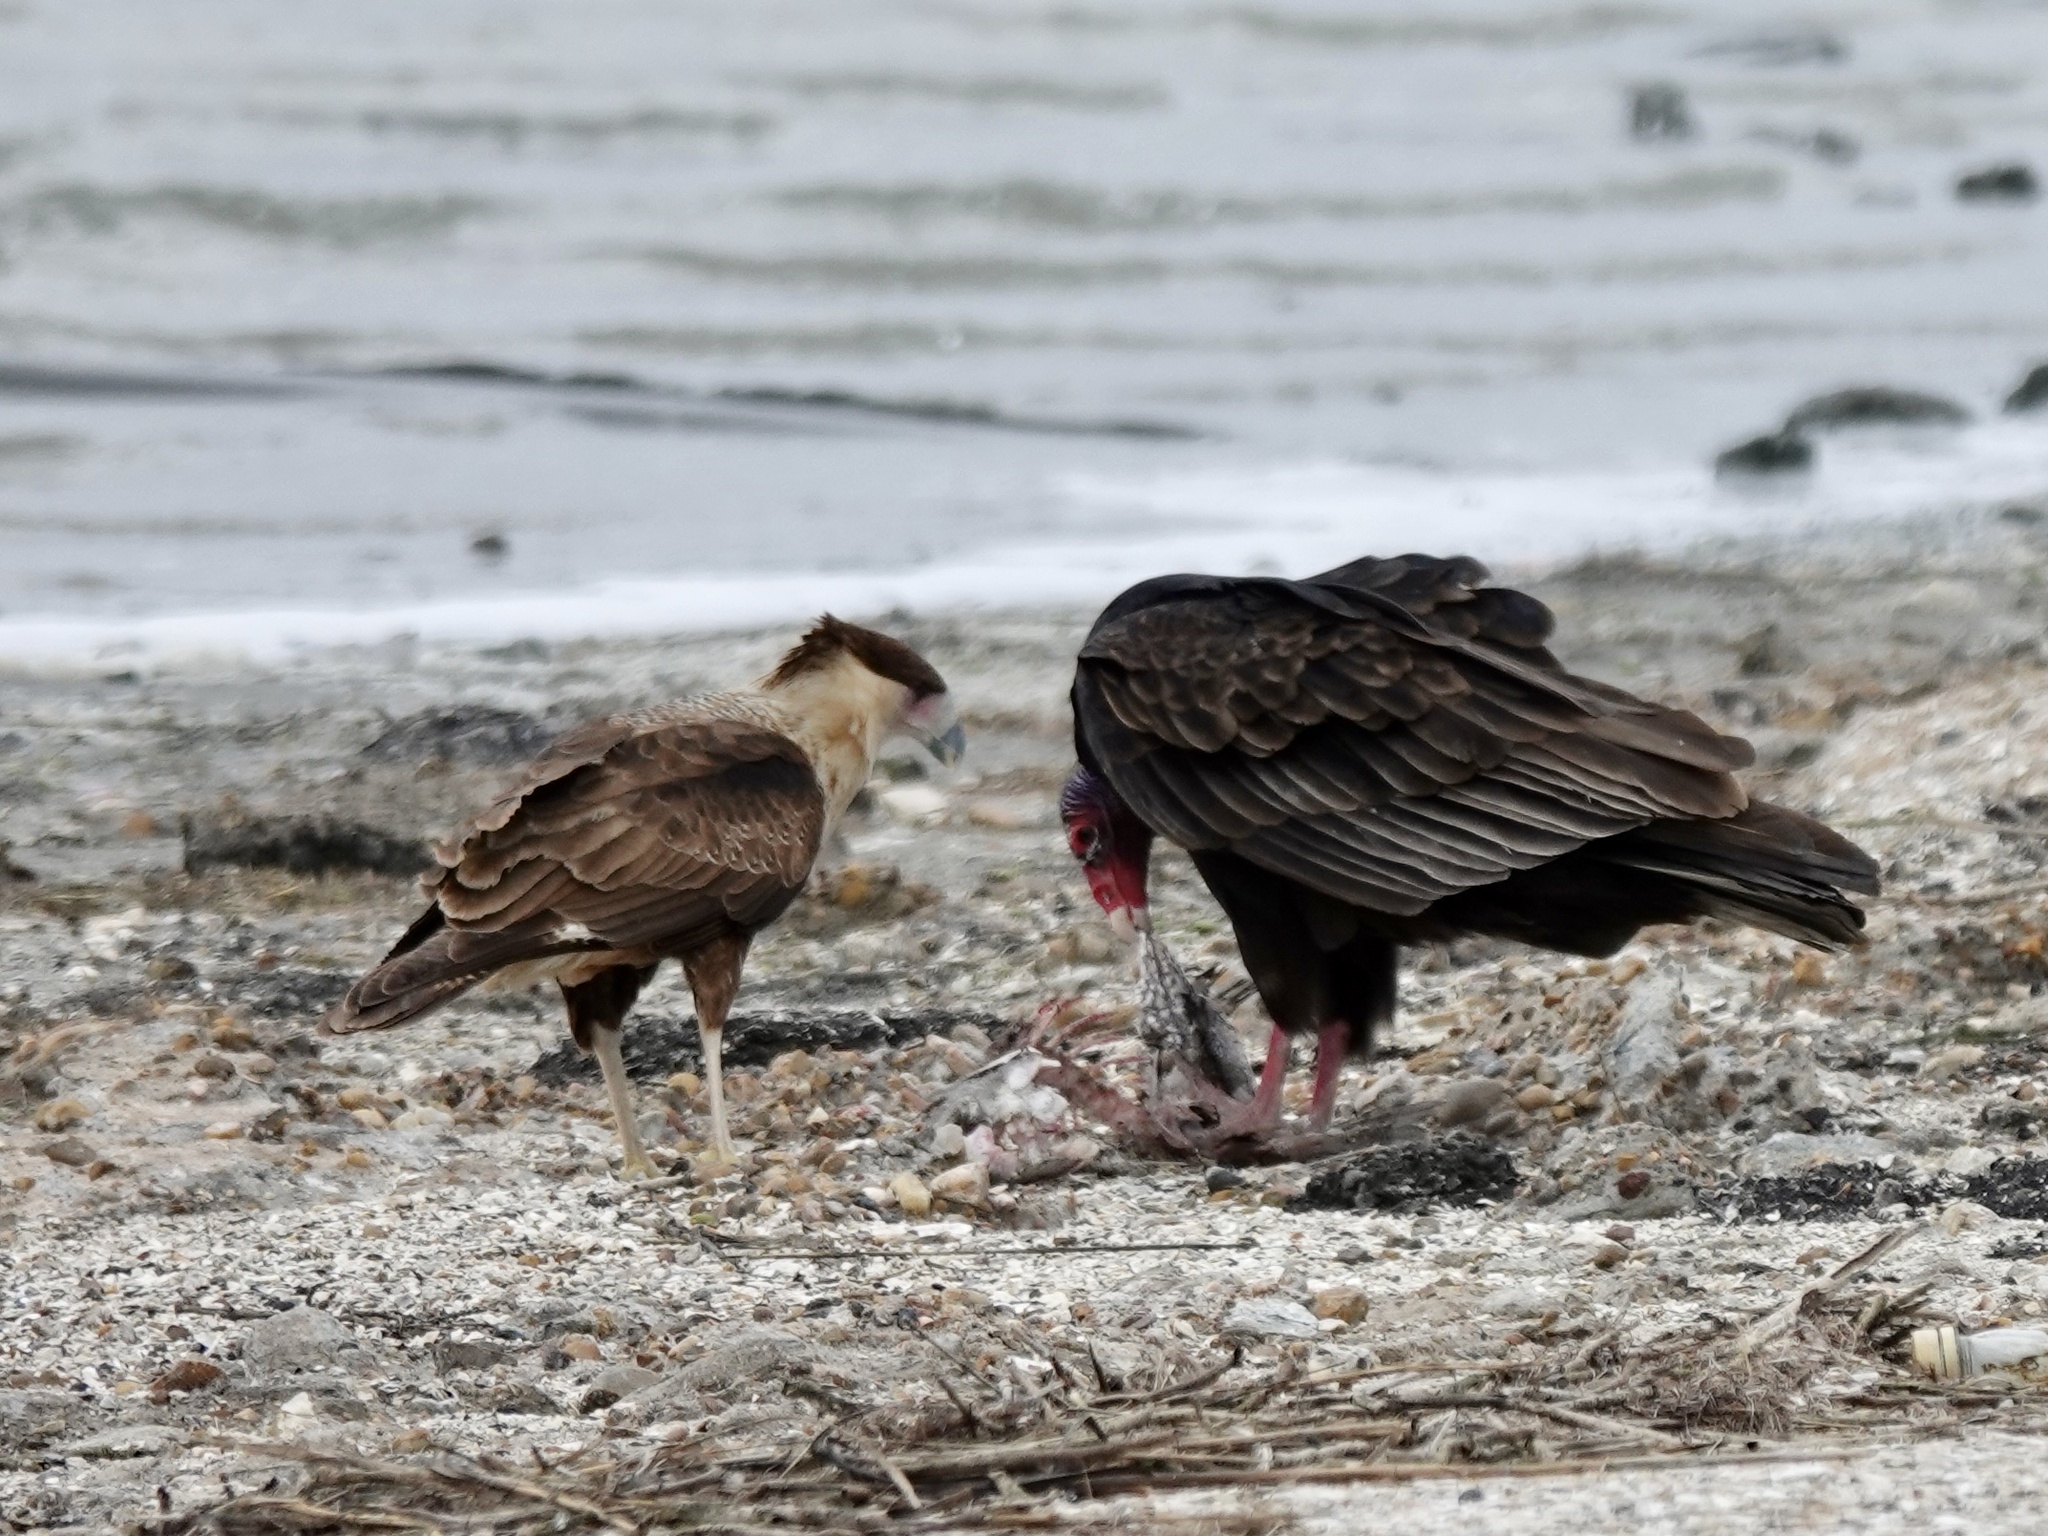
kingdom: Animalia
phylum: Chordata
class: Aves
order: Falconiformes
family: Falconidae
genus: Caracara
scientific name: Caracara plancus
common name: Southern caracara
